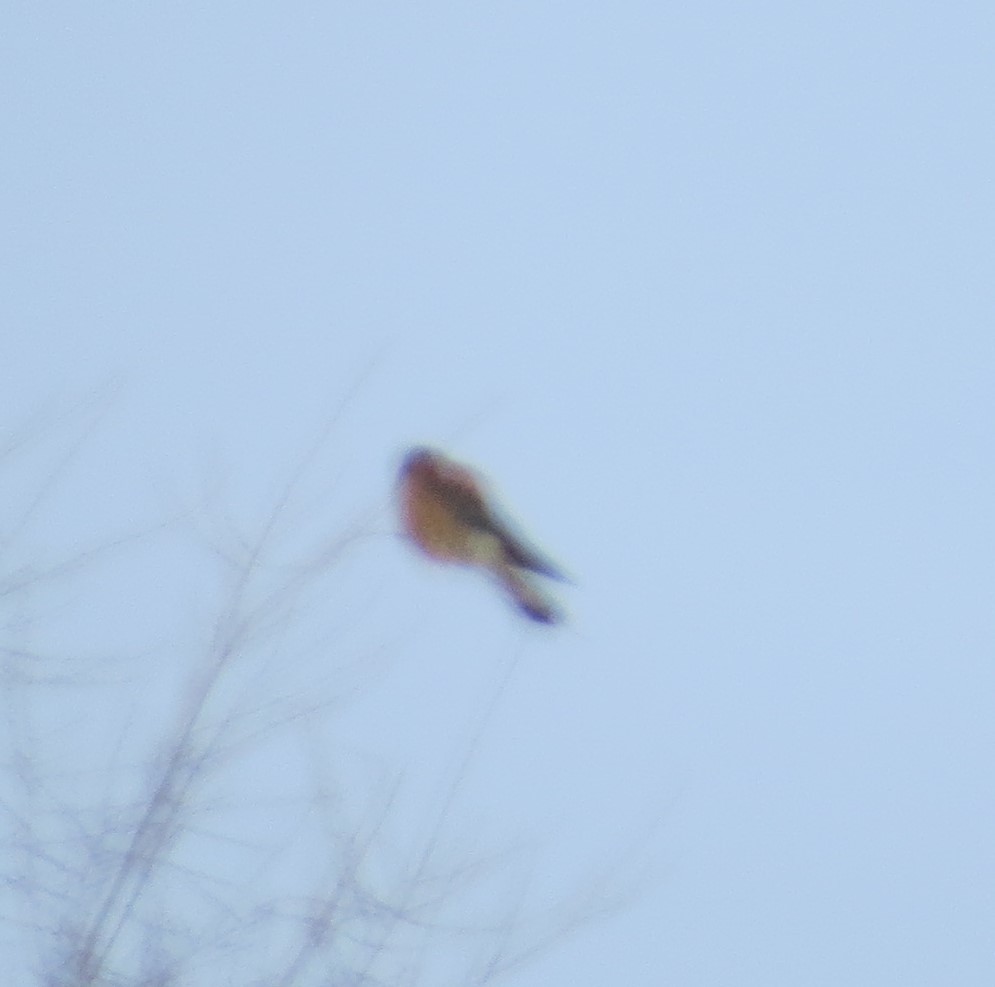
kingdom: Animalia
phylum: Chordata
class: Aves
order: Falconiformes
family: Falconidae
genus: Falco
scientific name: Falco sparverius
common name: American kestrel
